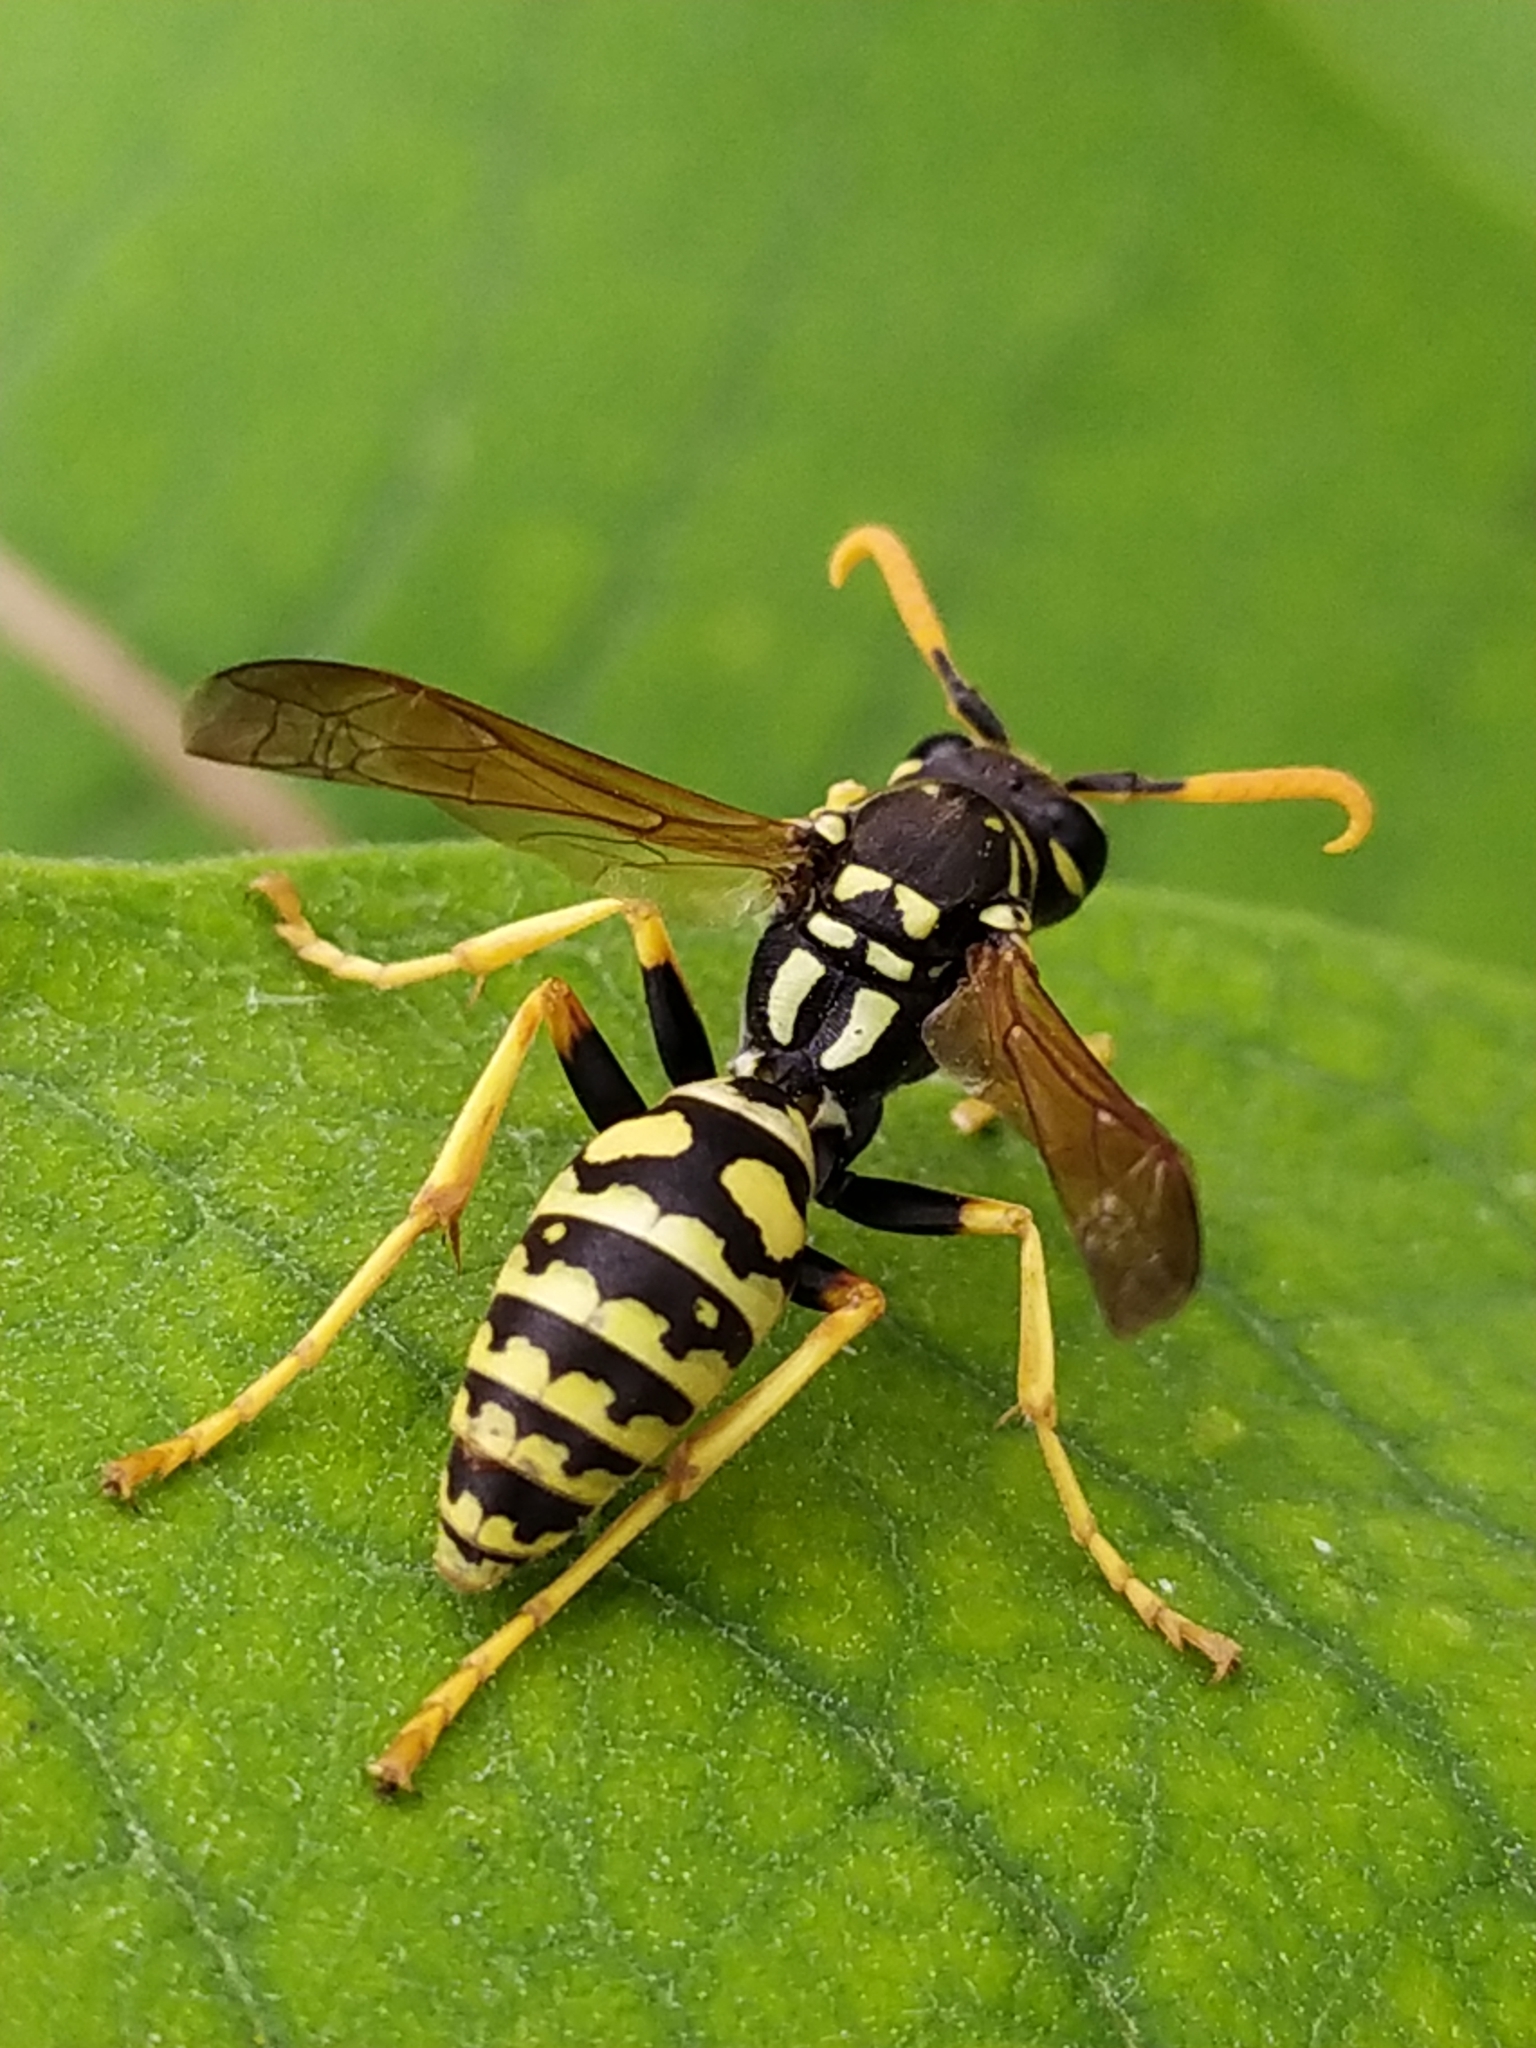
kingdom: Animalia
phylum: Arthropoda
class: Insecta
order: Hymenoptera
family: Eumenidae
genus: Polistes
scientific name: Polistes dominula
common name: Paper wasp
